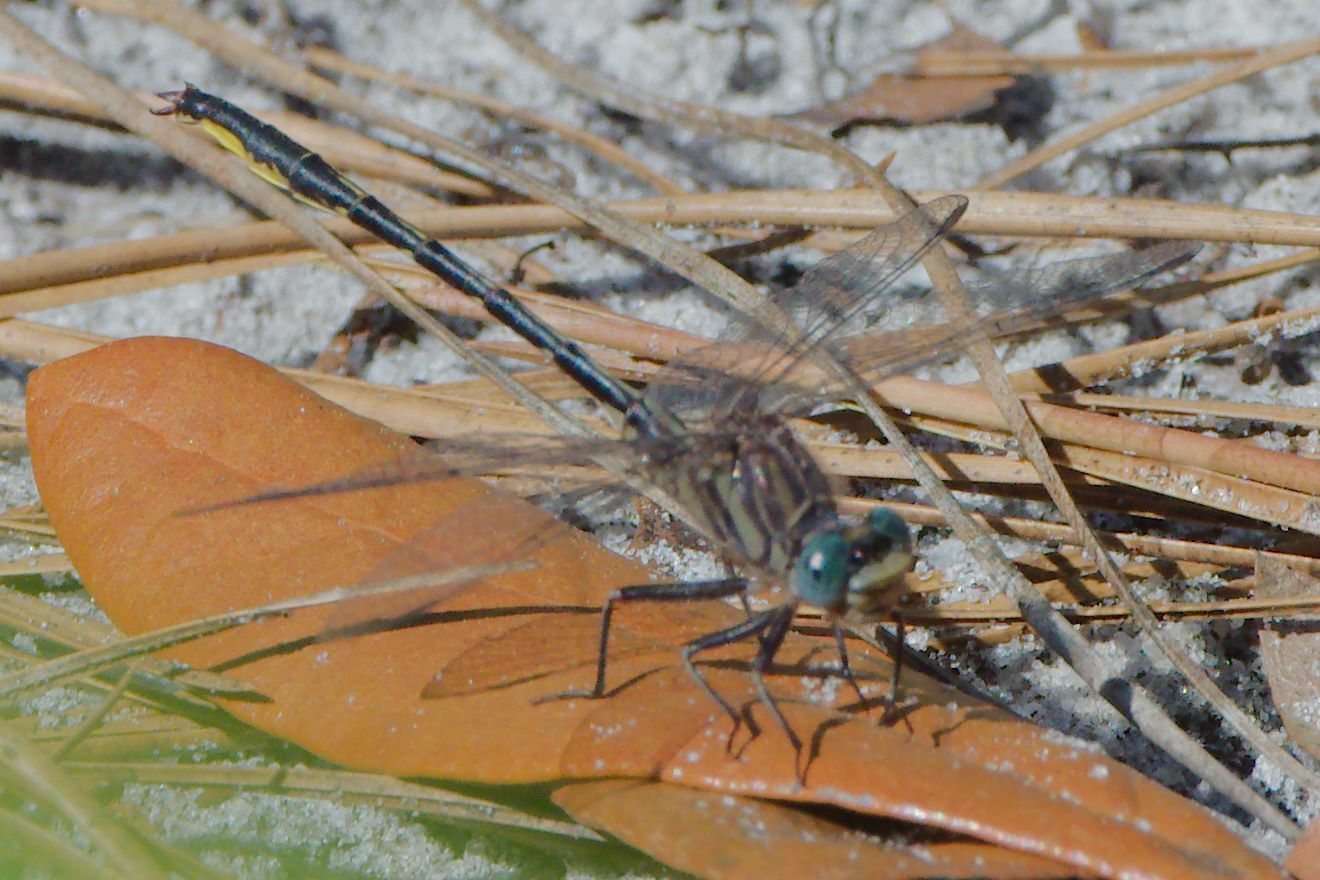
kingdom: Animalia
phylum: Arthropoda
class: Insecta
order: Odonata
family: Gomphidae
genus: Phanogomphus
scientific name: Phanogomphus westfalli
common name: Westfall’s clubtail
